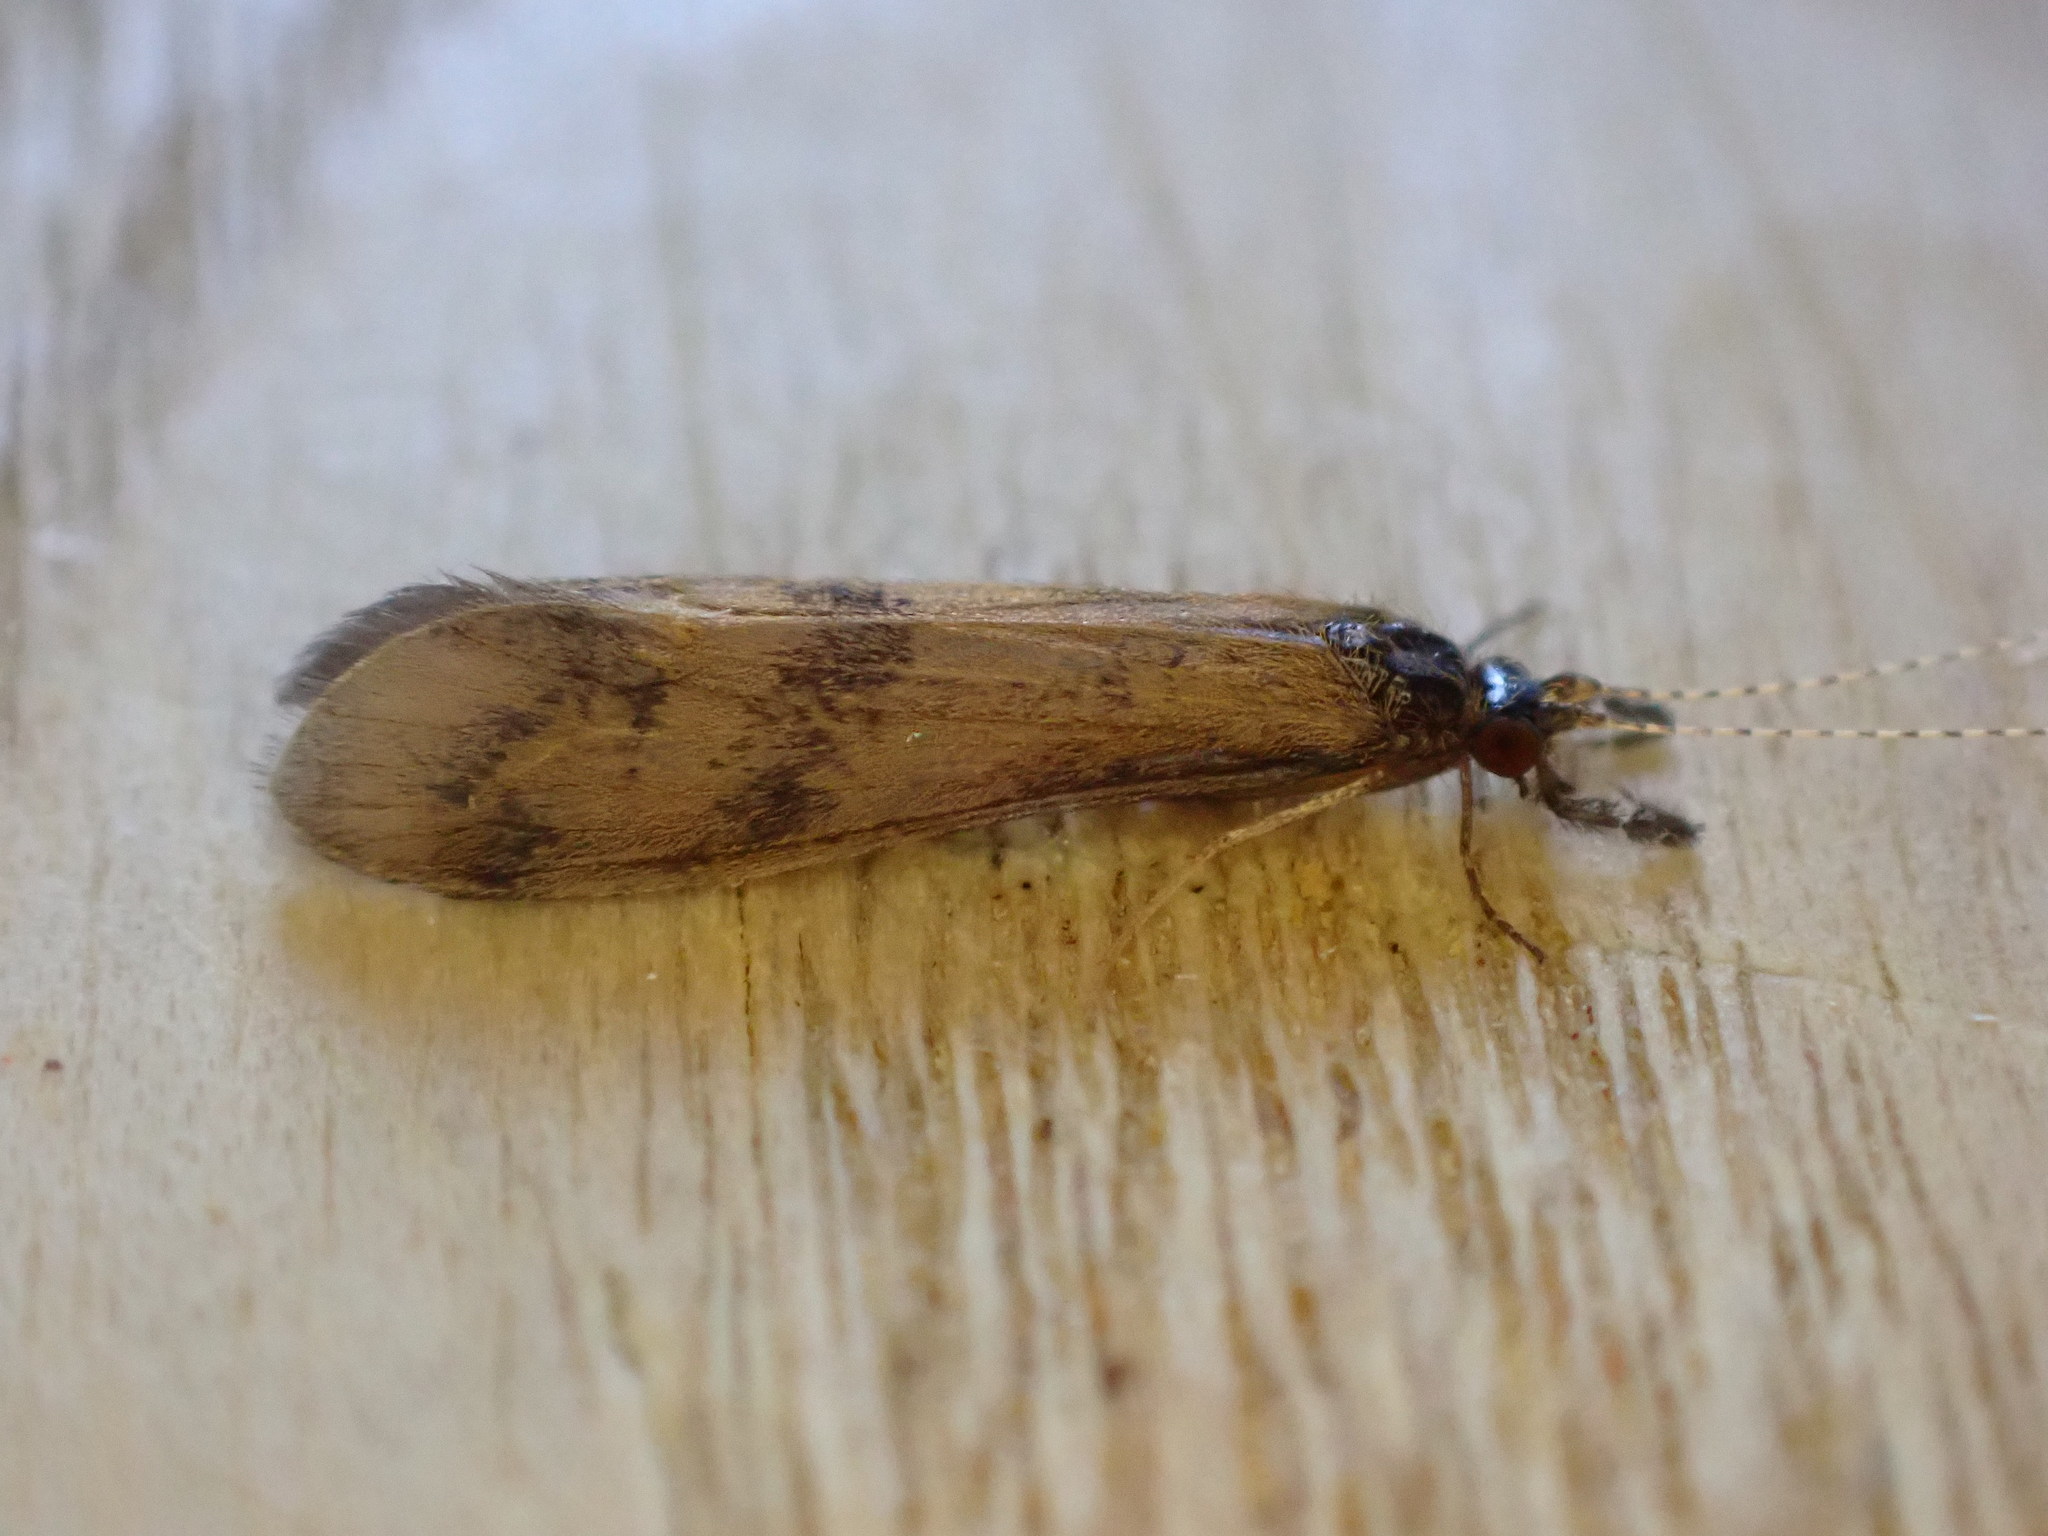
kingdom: Animalia
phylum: Arthropoda
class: Insecta
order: Trichoptera
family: Leptoceridae
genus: Mystacides
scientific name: Mystacides longicornis
